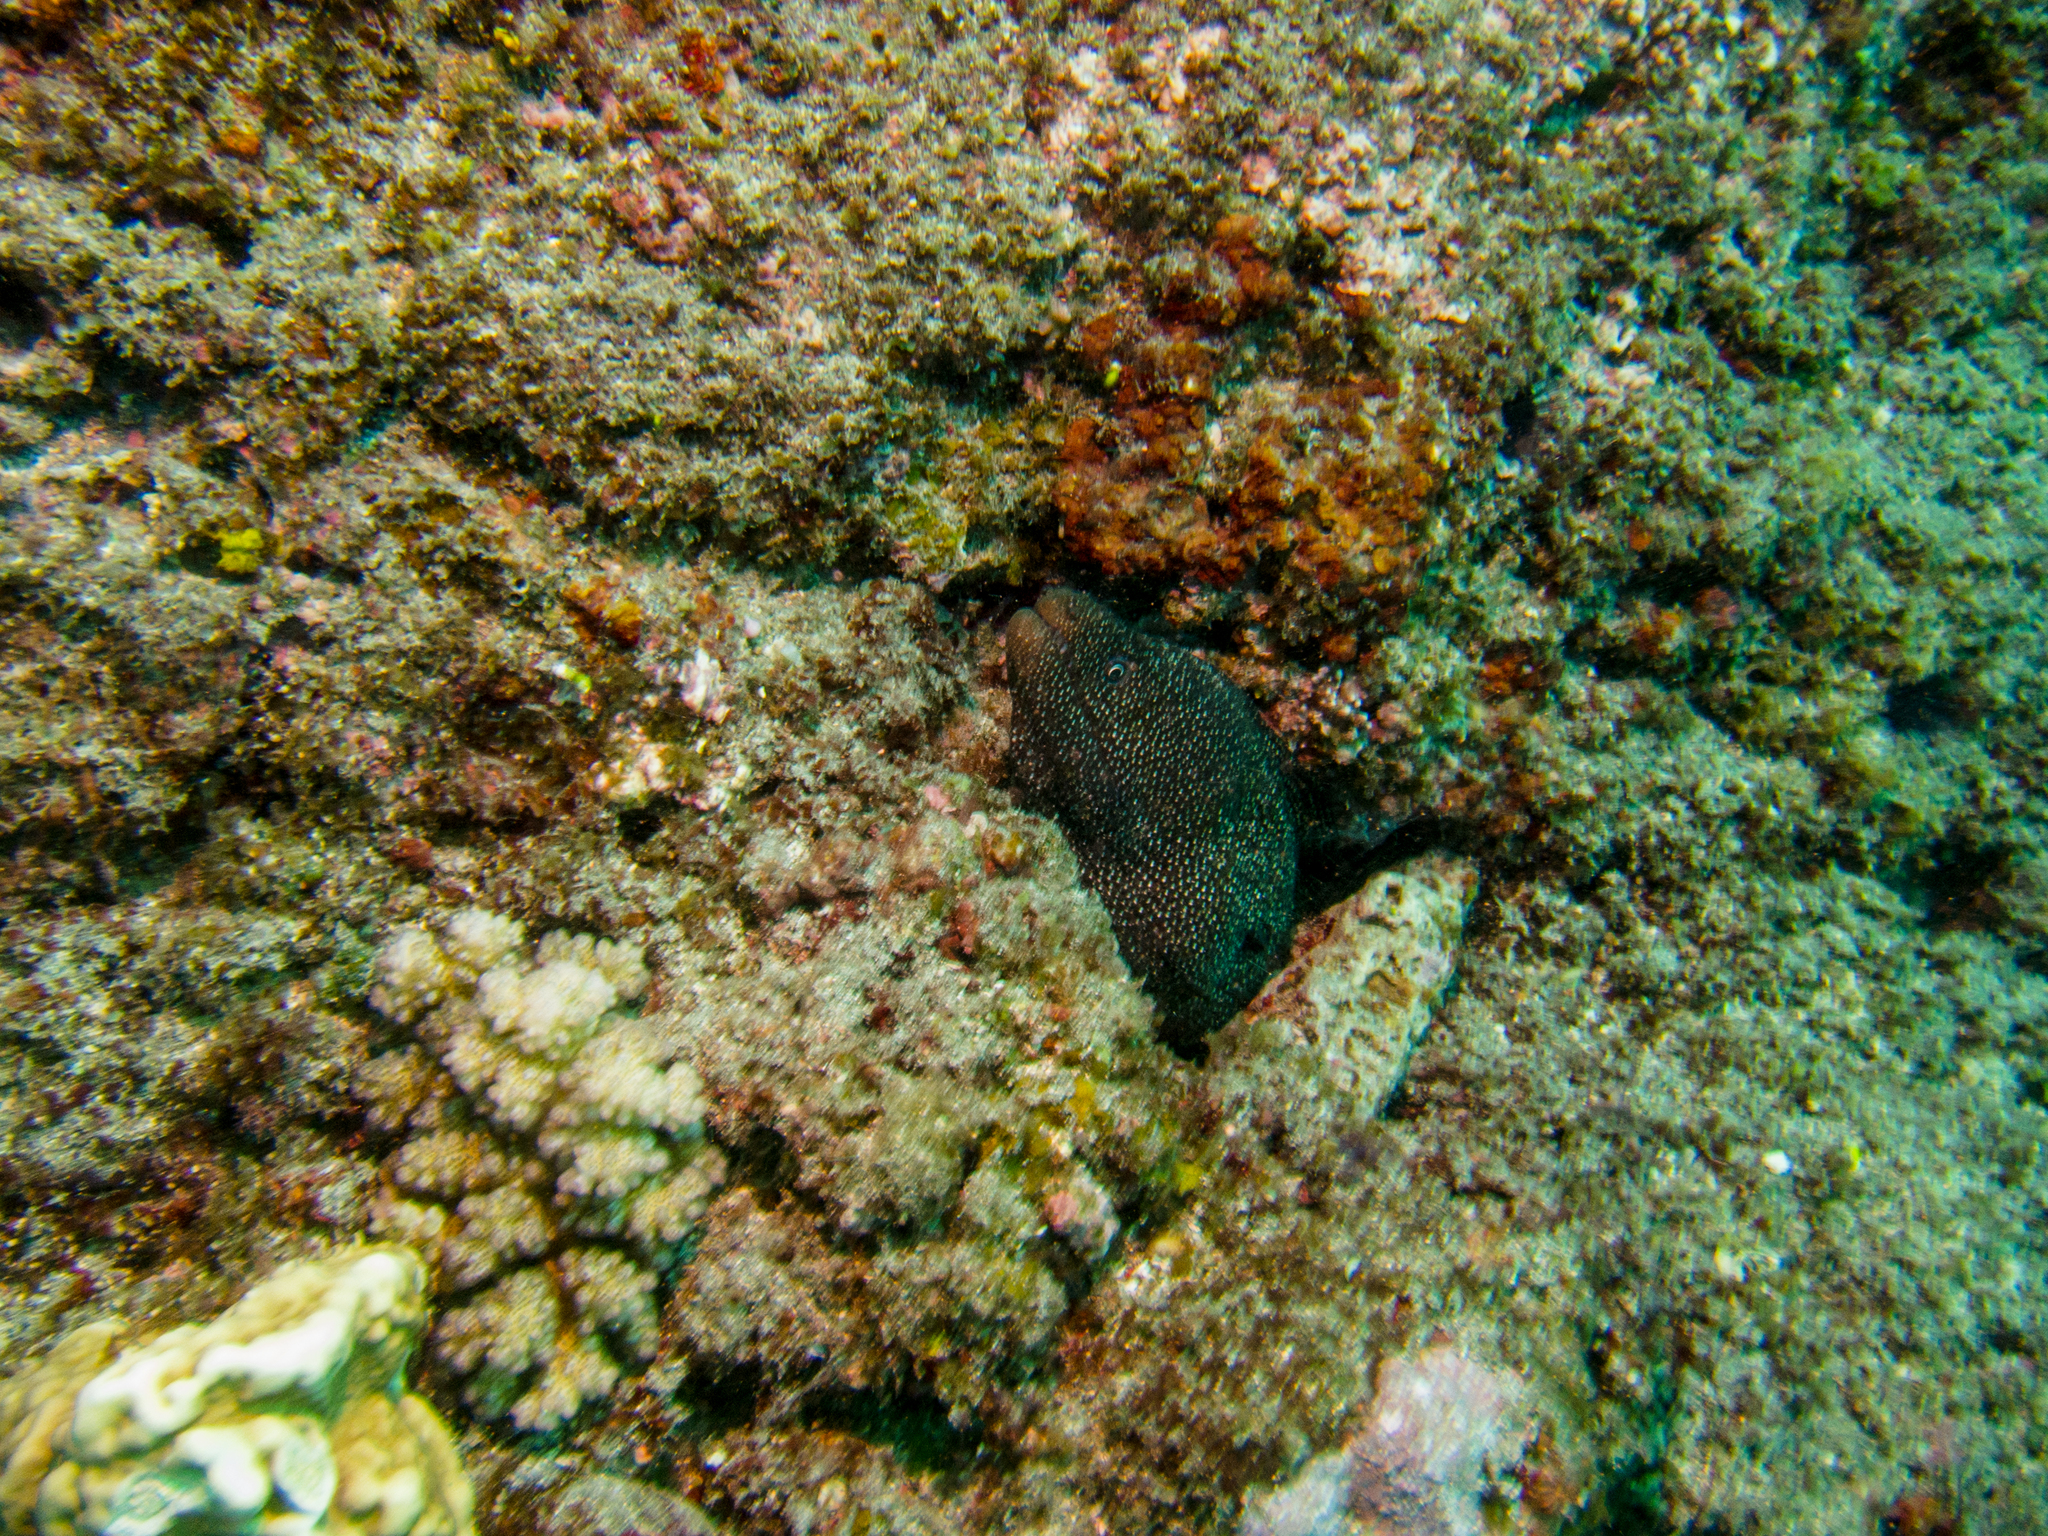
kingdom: Animalia
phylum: Chordata
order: Anguilliformes
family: Muraenidae
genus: Gymnothorax
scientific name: Gymnothorax meleagris
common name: Guineafowl moray
